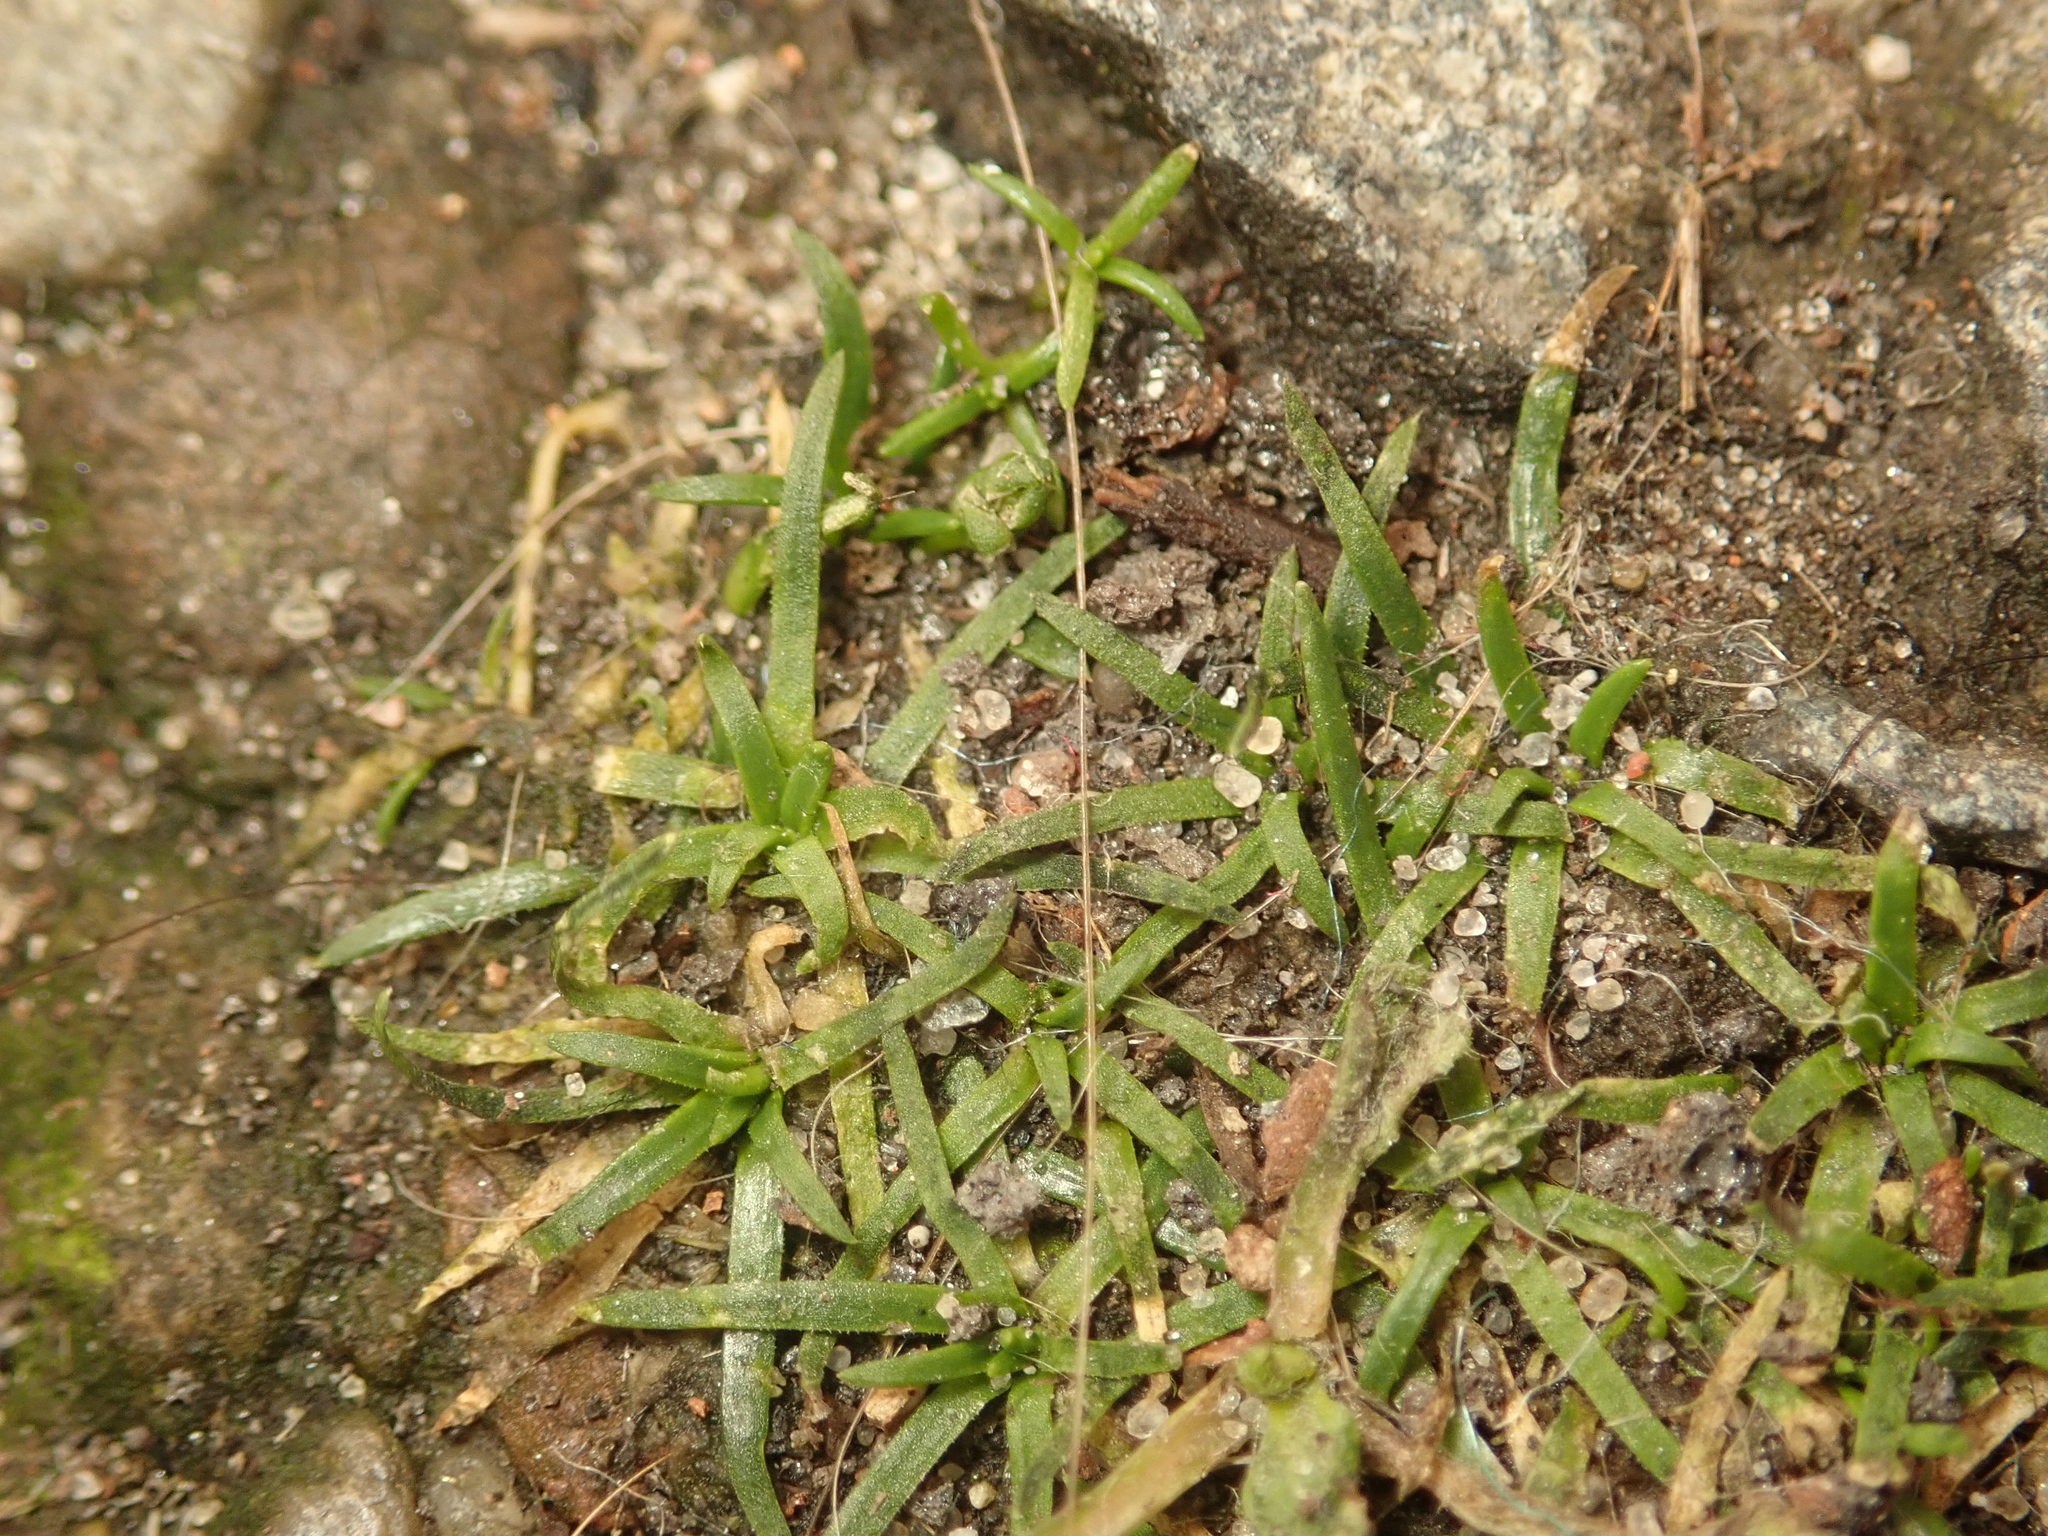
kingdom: Plantae
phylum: Tracheophyta
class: Magnoliopsida
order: Caryophyllales
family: Caryophyllaceae
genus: Sagina
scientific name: Sagina procumbens
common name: Procumbent pearlwort
